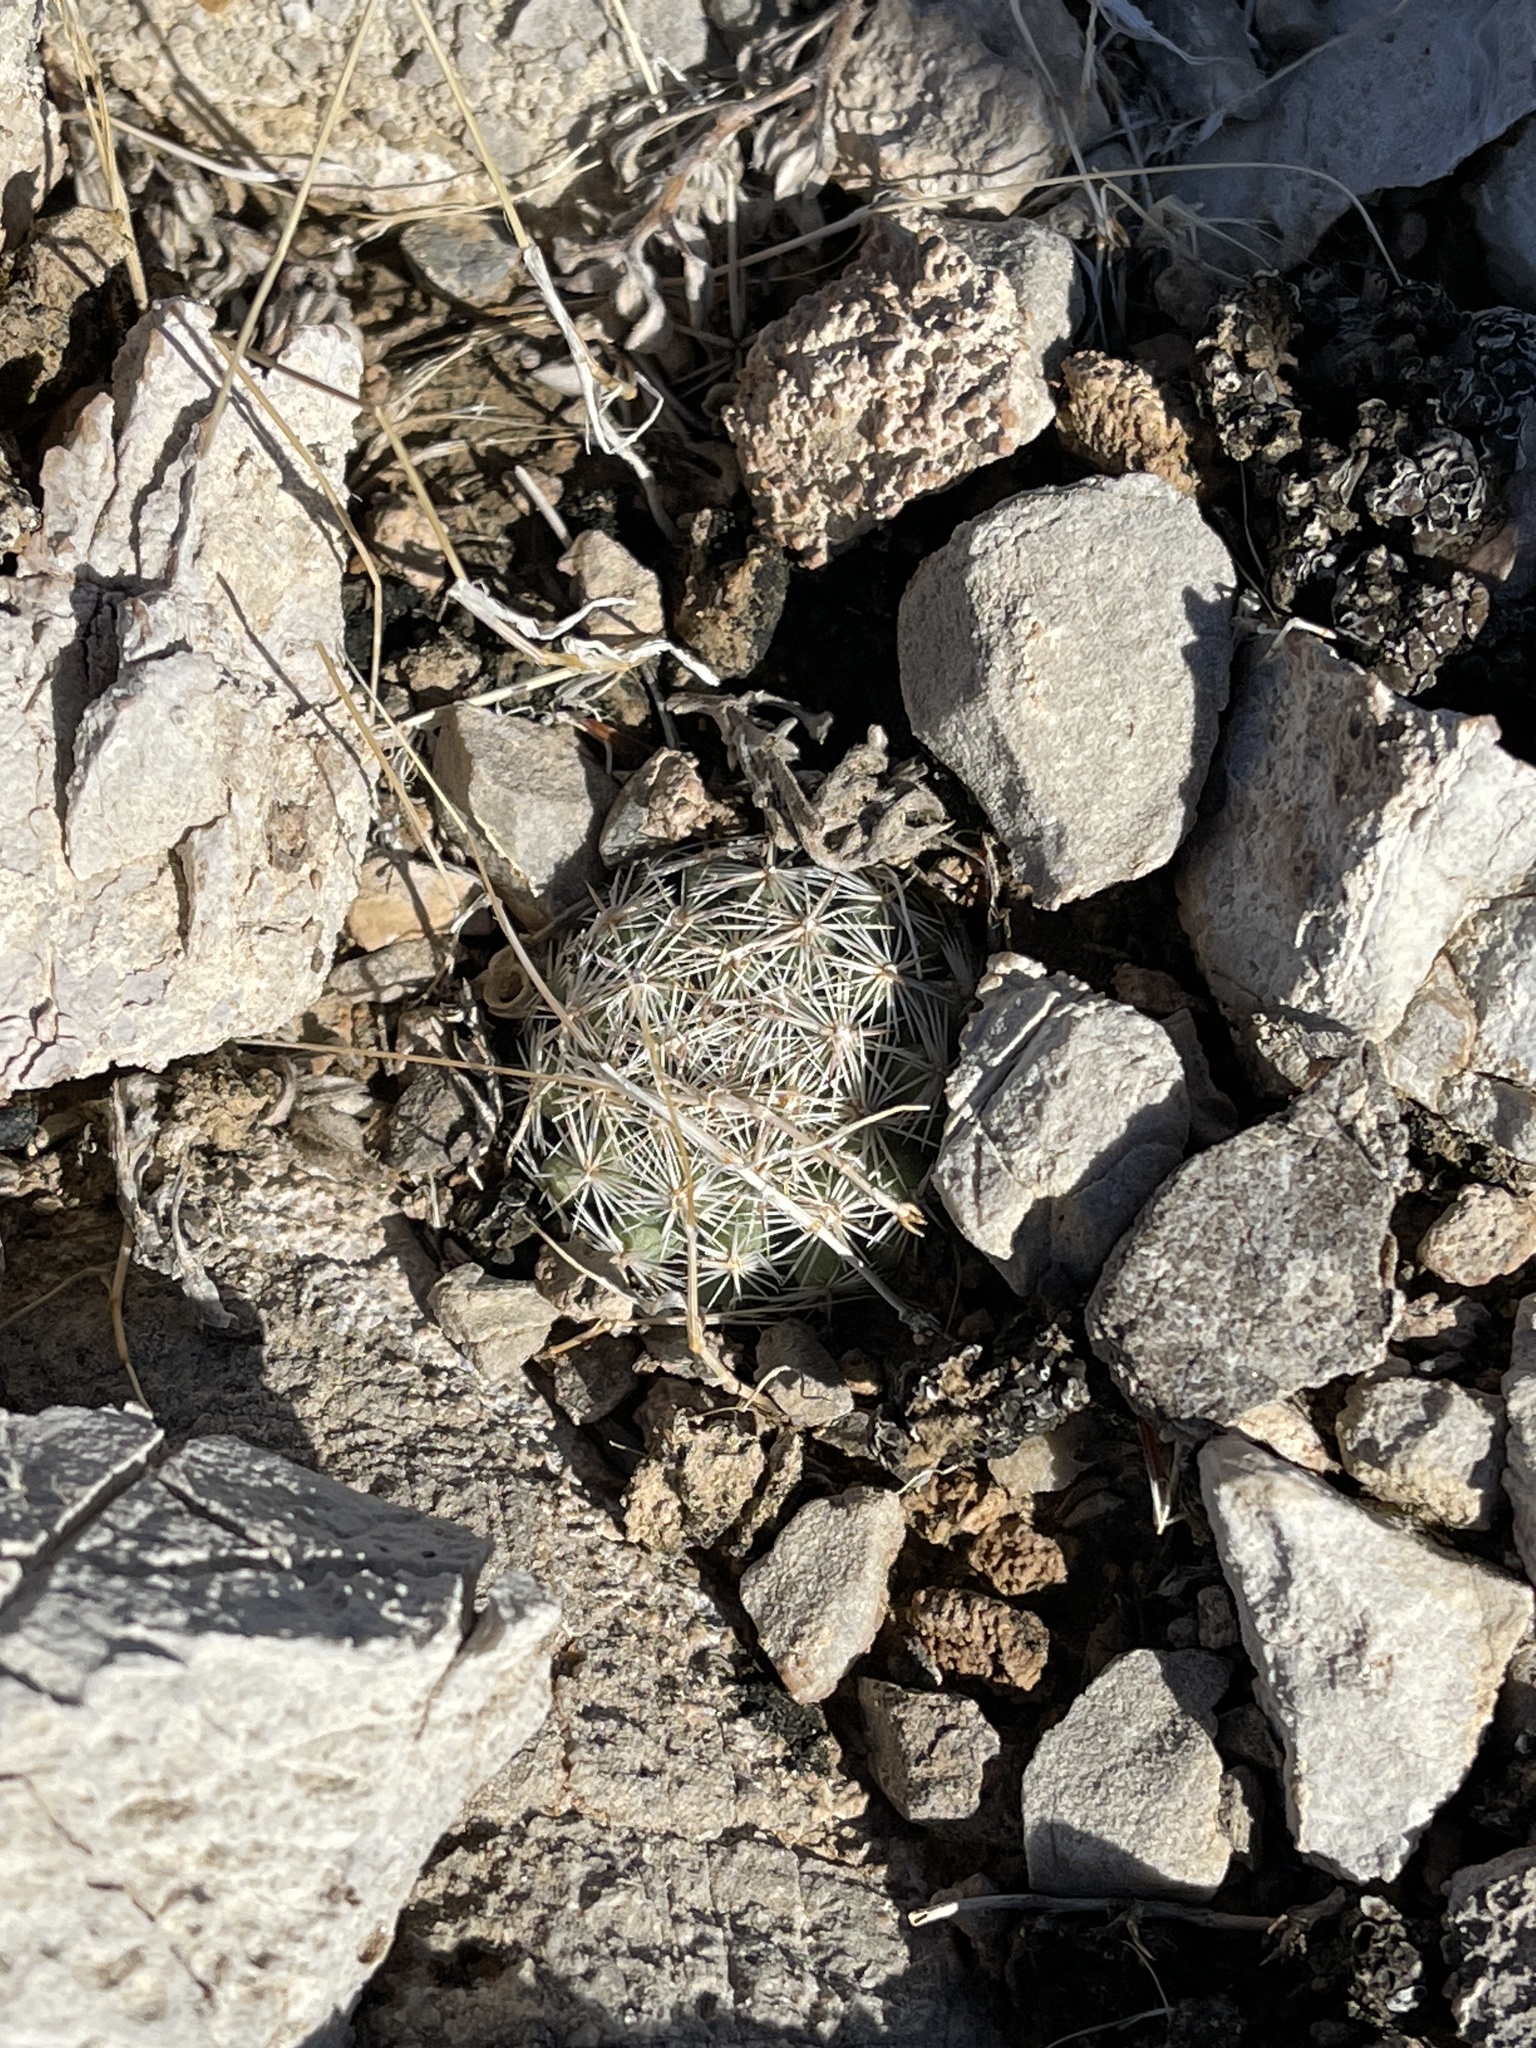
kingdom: Plantae
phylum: Tracheophyta
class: Magnoliopsida
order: Caryophyllales
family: Cactaceae
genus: Pelecyphora
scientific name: Pelecyphora dasyacantha
